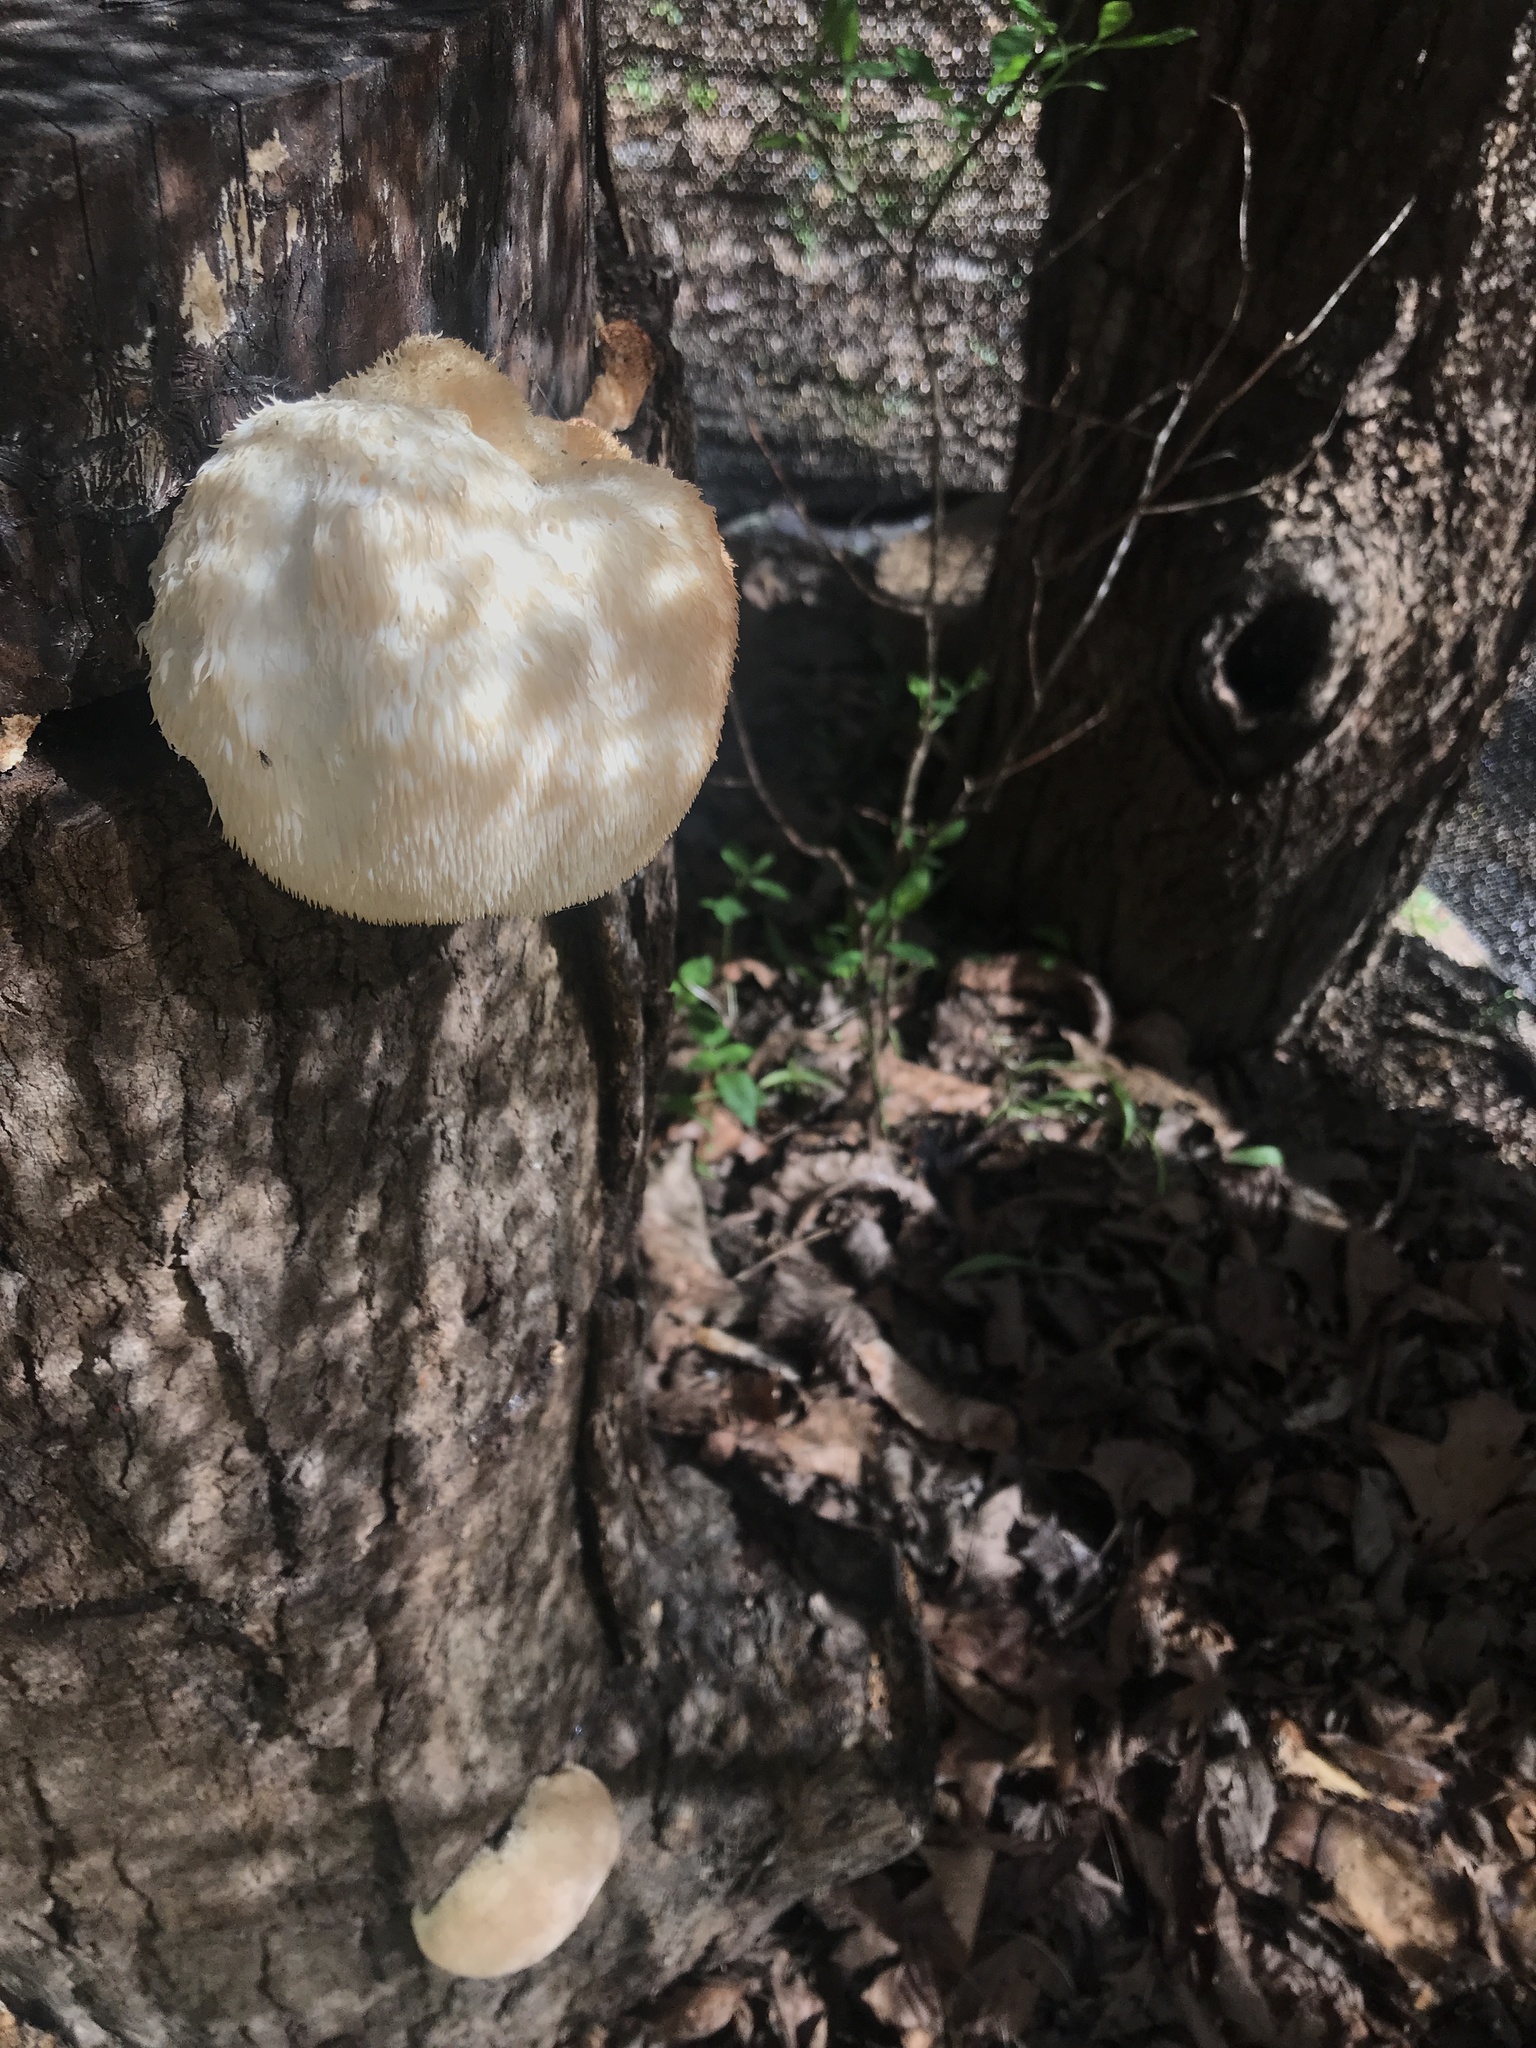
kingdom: Fungi
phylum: Basidiomycota
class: Agaricomycetes
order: Russulales
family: Hericiaceae
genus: Hericium
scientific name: Hericium erinaceus
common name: Bearded tooth
